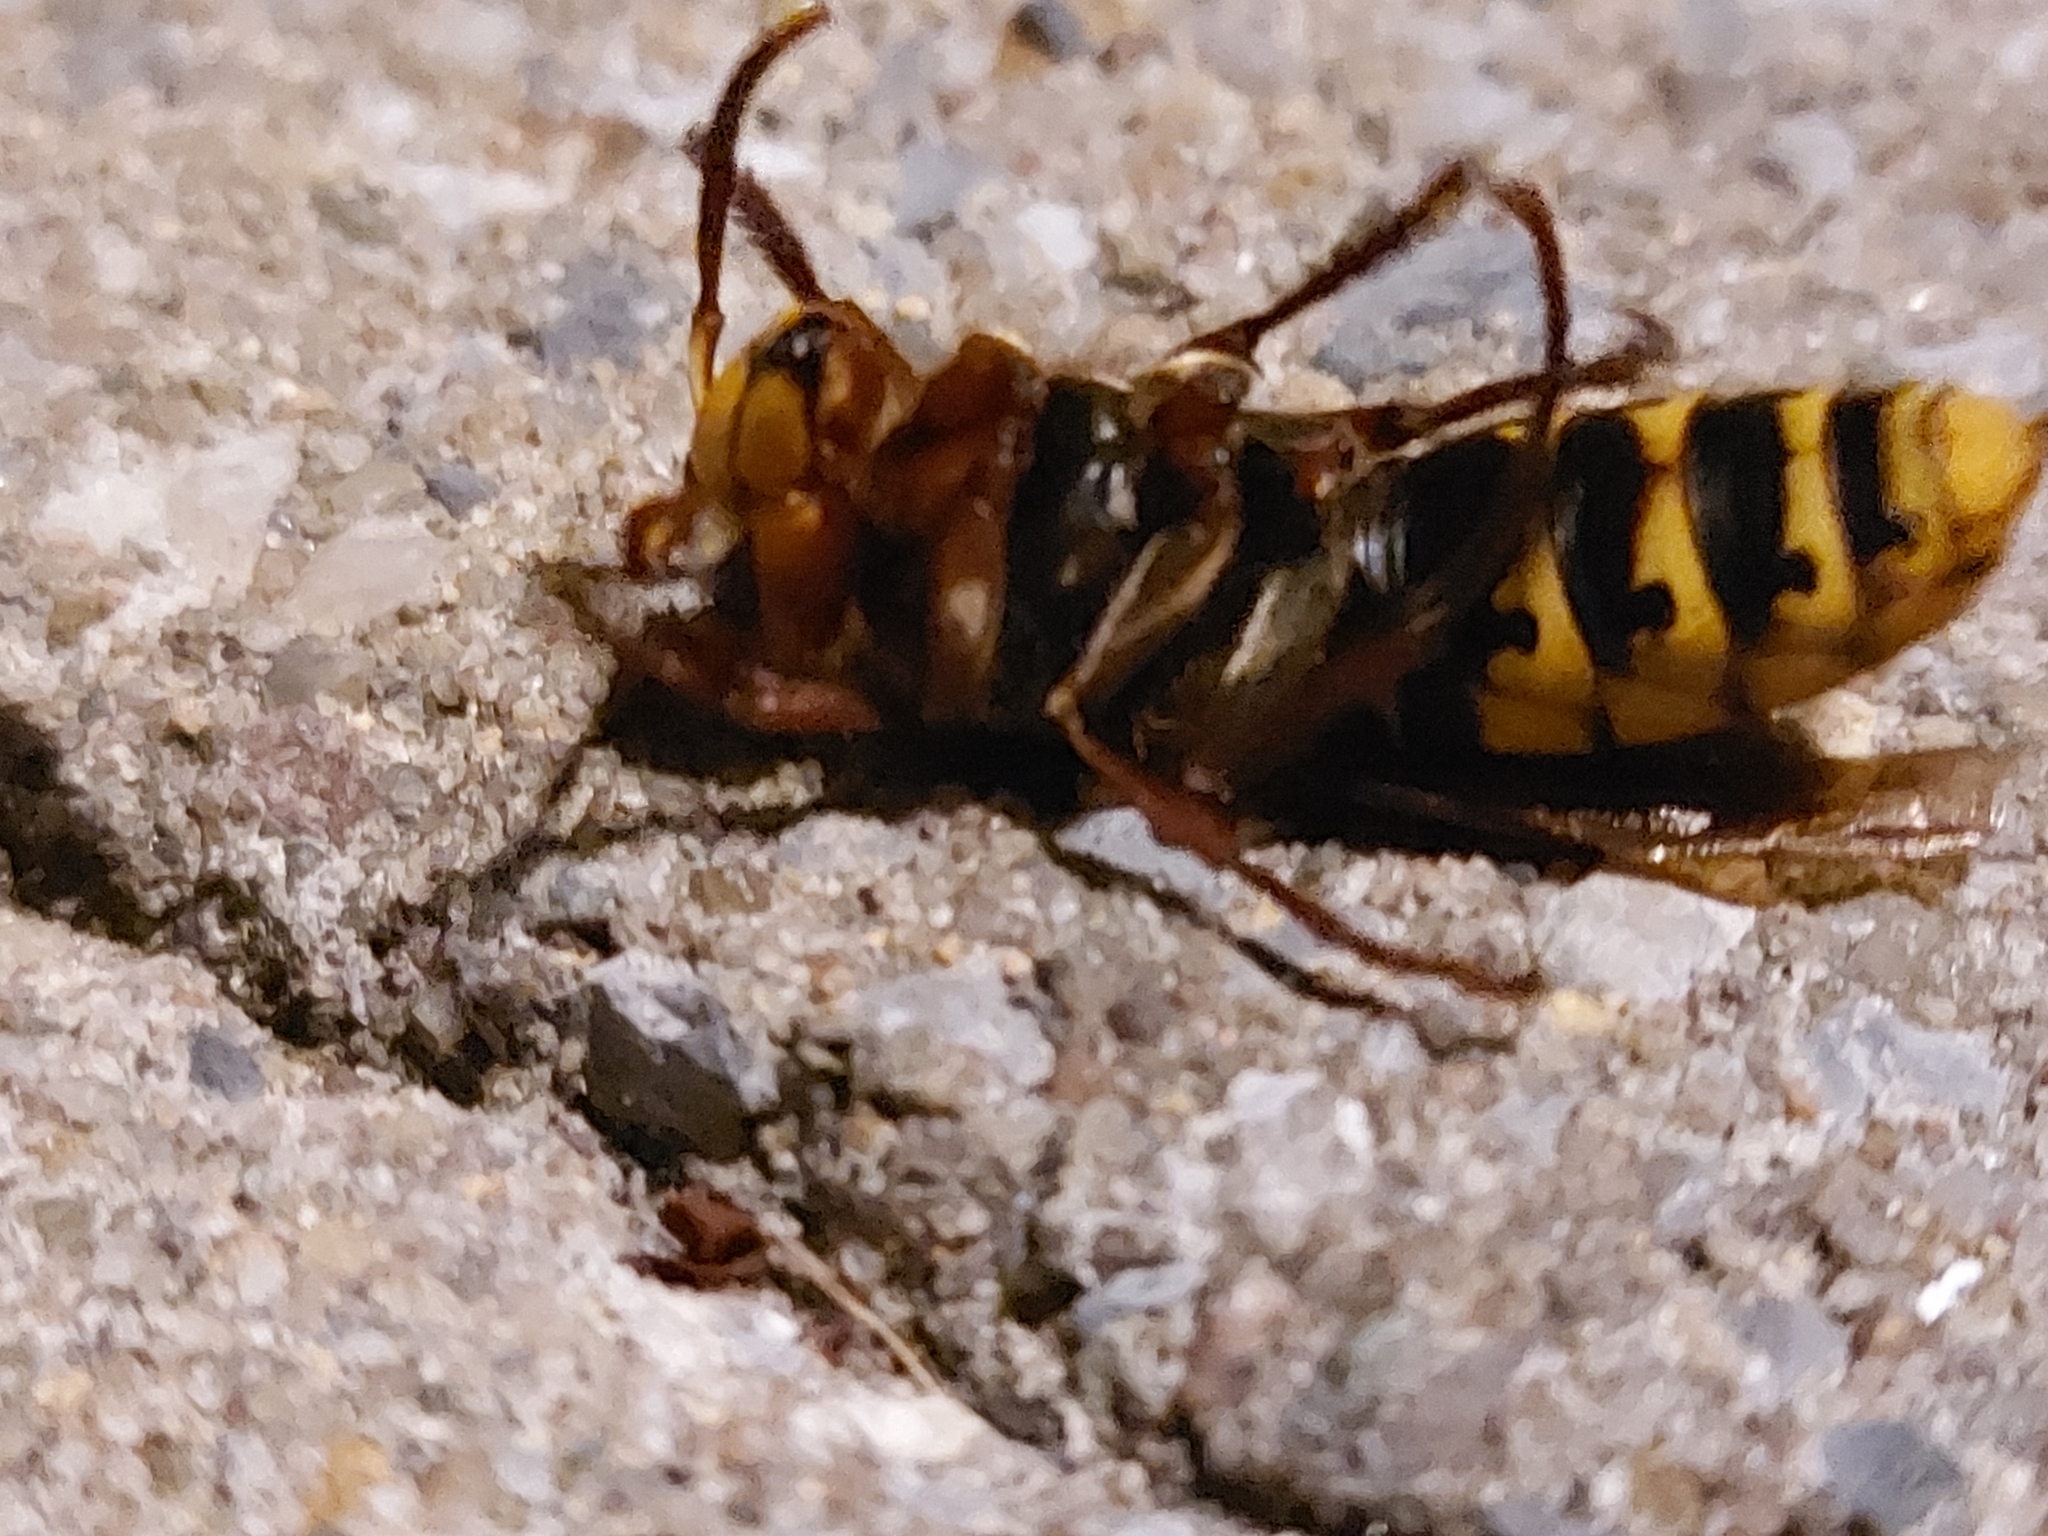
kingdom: Animalia
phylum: Arthropoda
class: Insecta
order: Hymenoptera
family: Vespidae
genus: Vespa
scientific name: Vespa crabro
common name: Hornet
